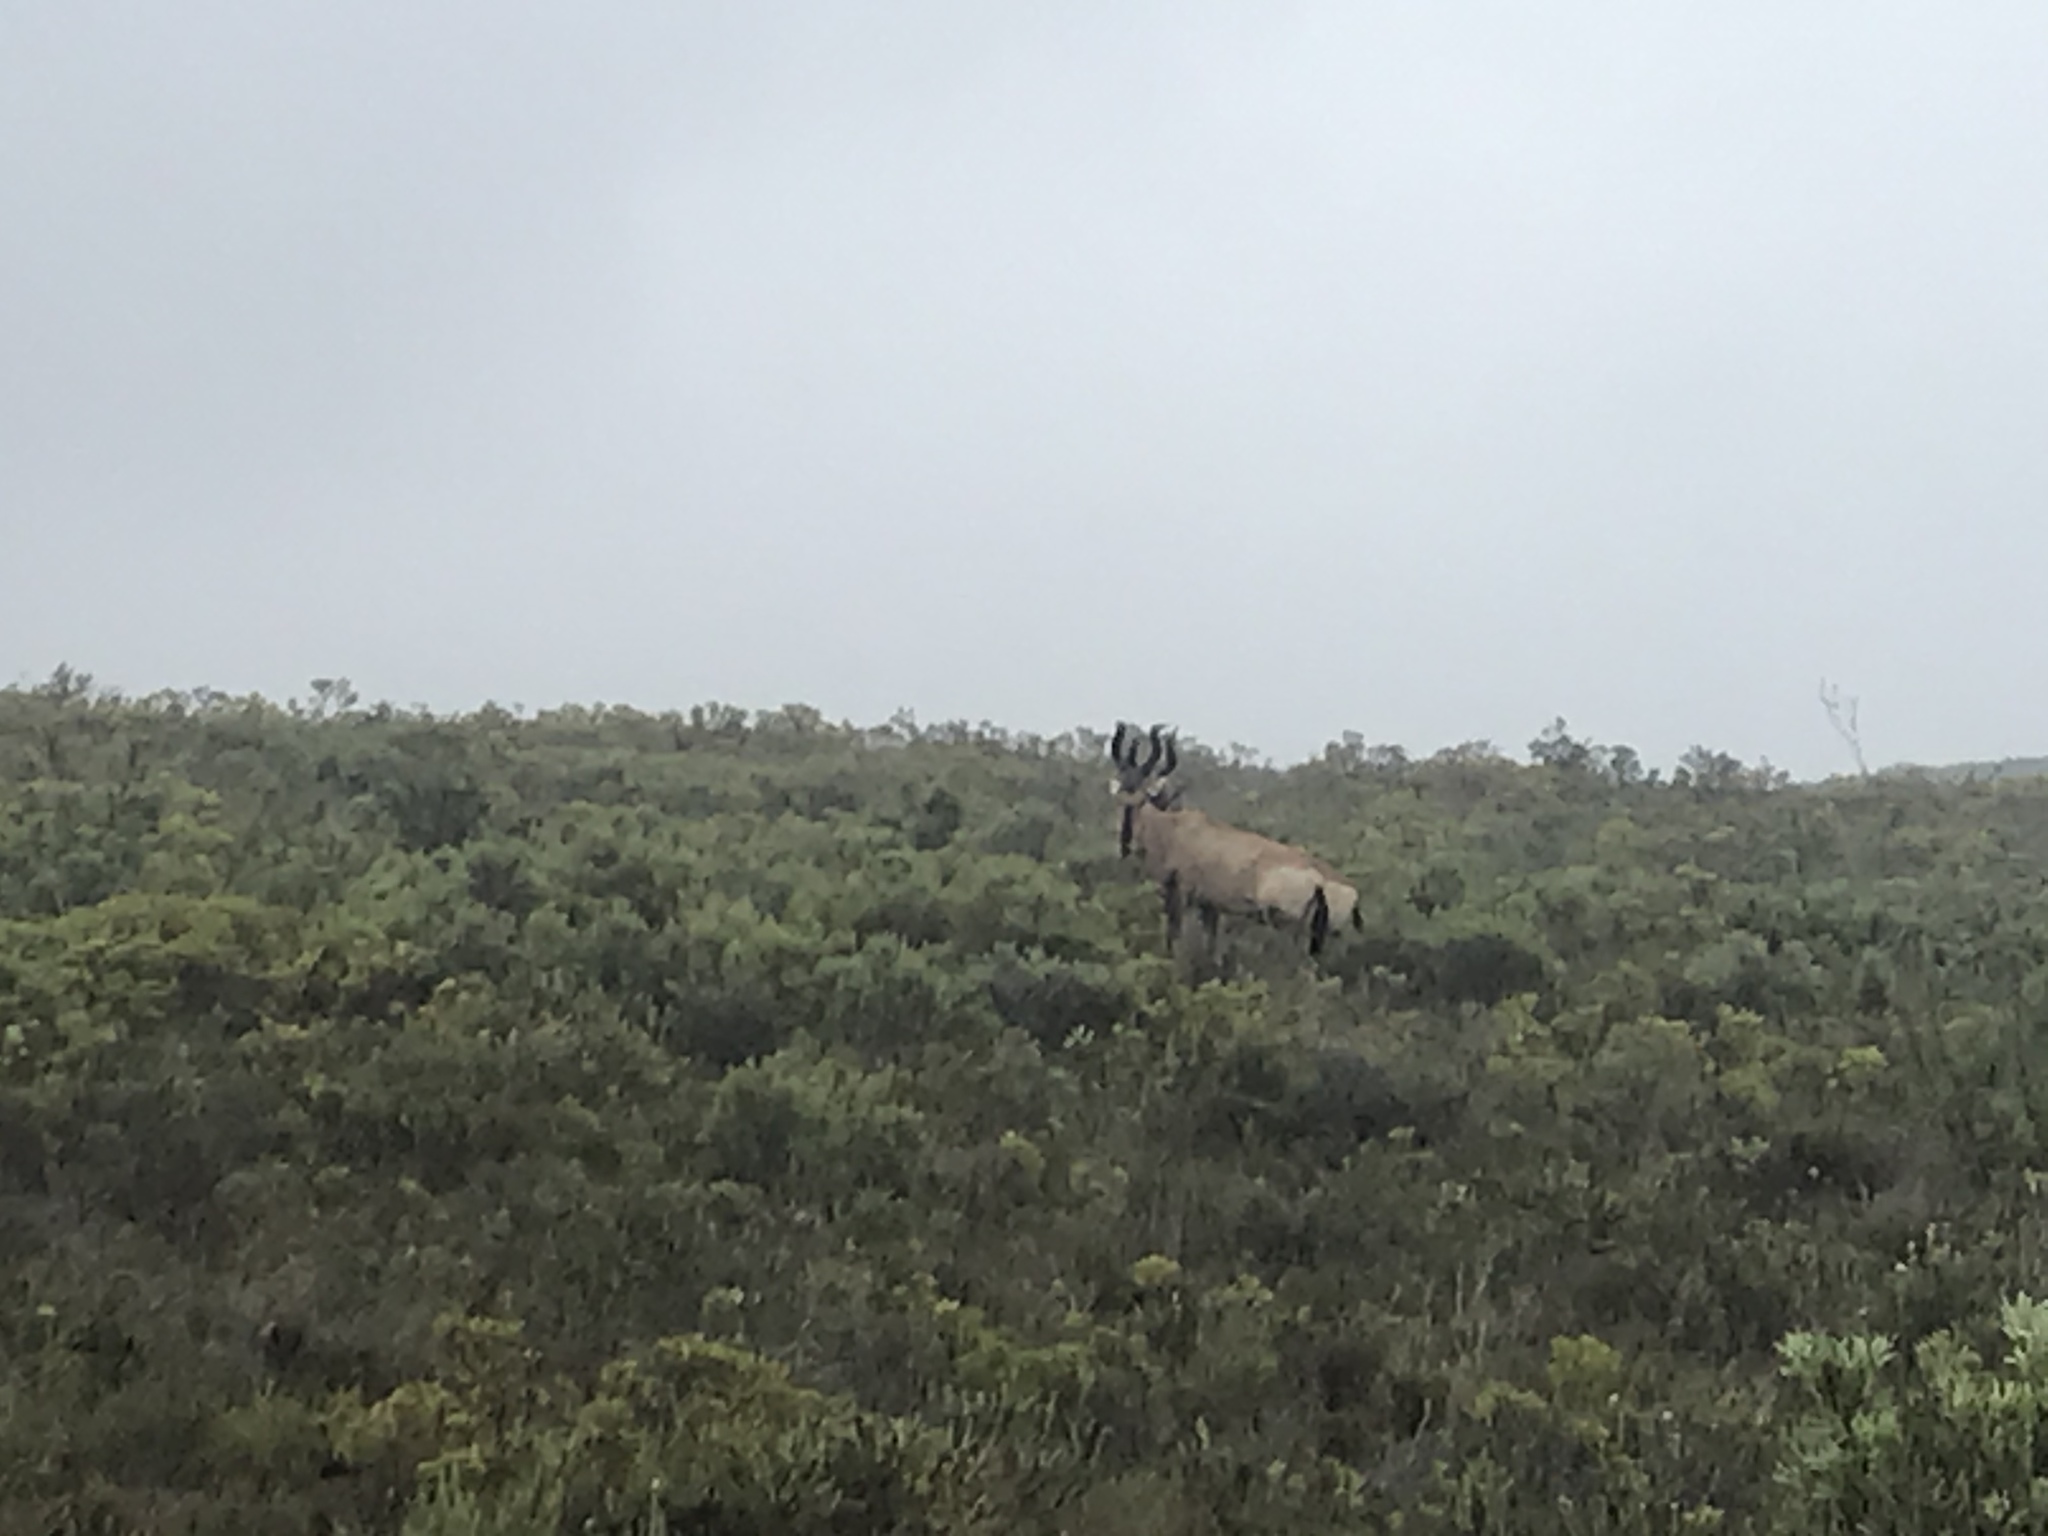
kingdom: Animalia
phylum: Chordata
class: Mammalia
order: Artiodactyla
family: Bovidae
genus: Alcelaphus
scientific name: Alcelaphus caama
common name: Red hartebeest
